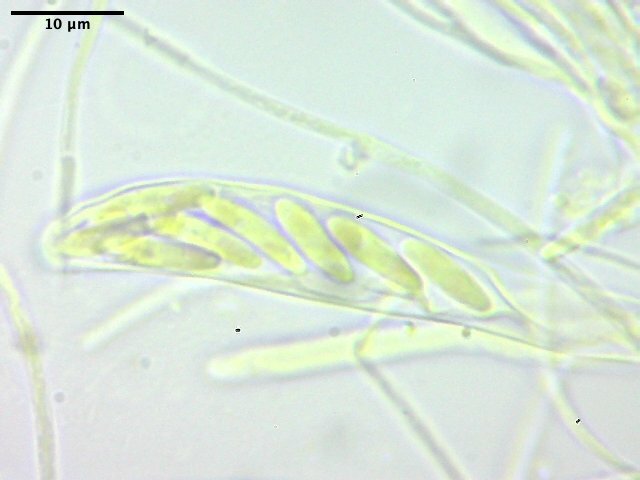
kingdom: Fungi
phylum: Ascomycota
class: Leotiomycetes
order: Helotiales
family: Hyaloscyphaceae
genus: Roseodiscus
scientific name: Roseodiscus formosus
